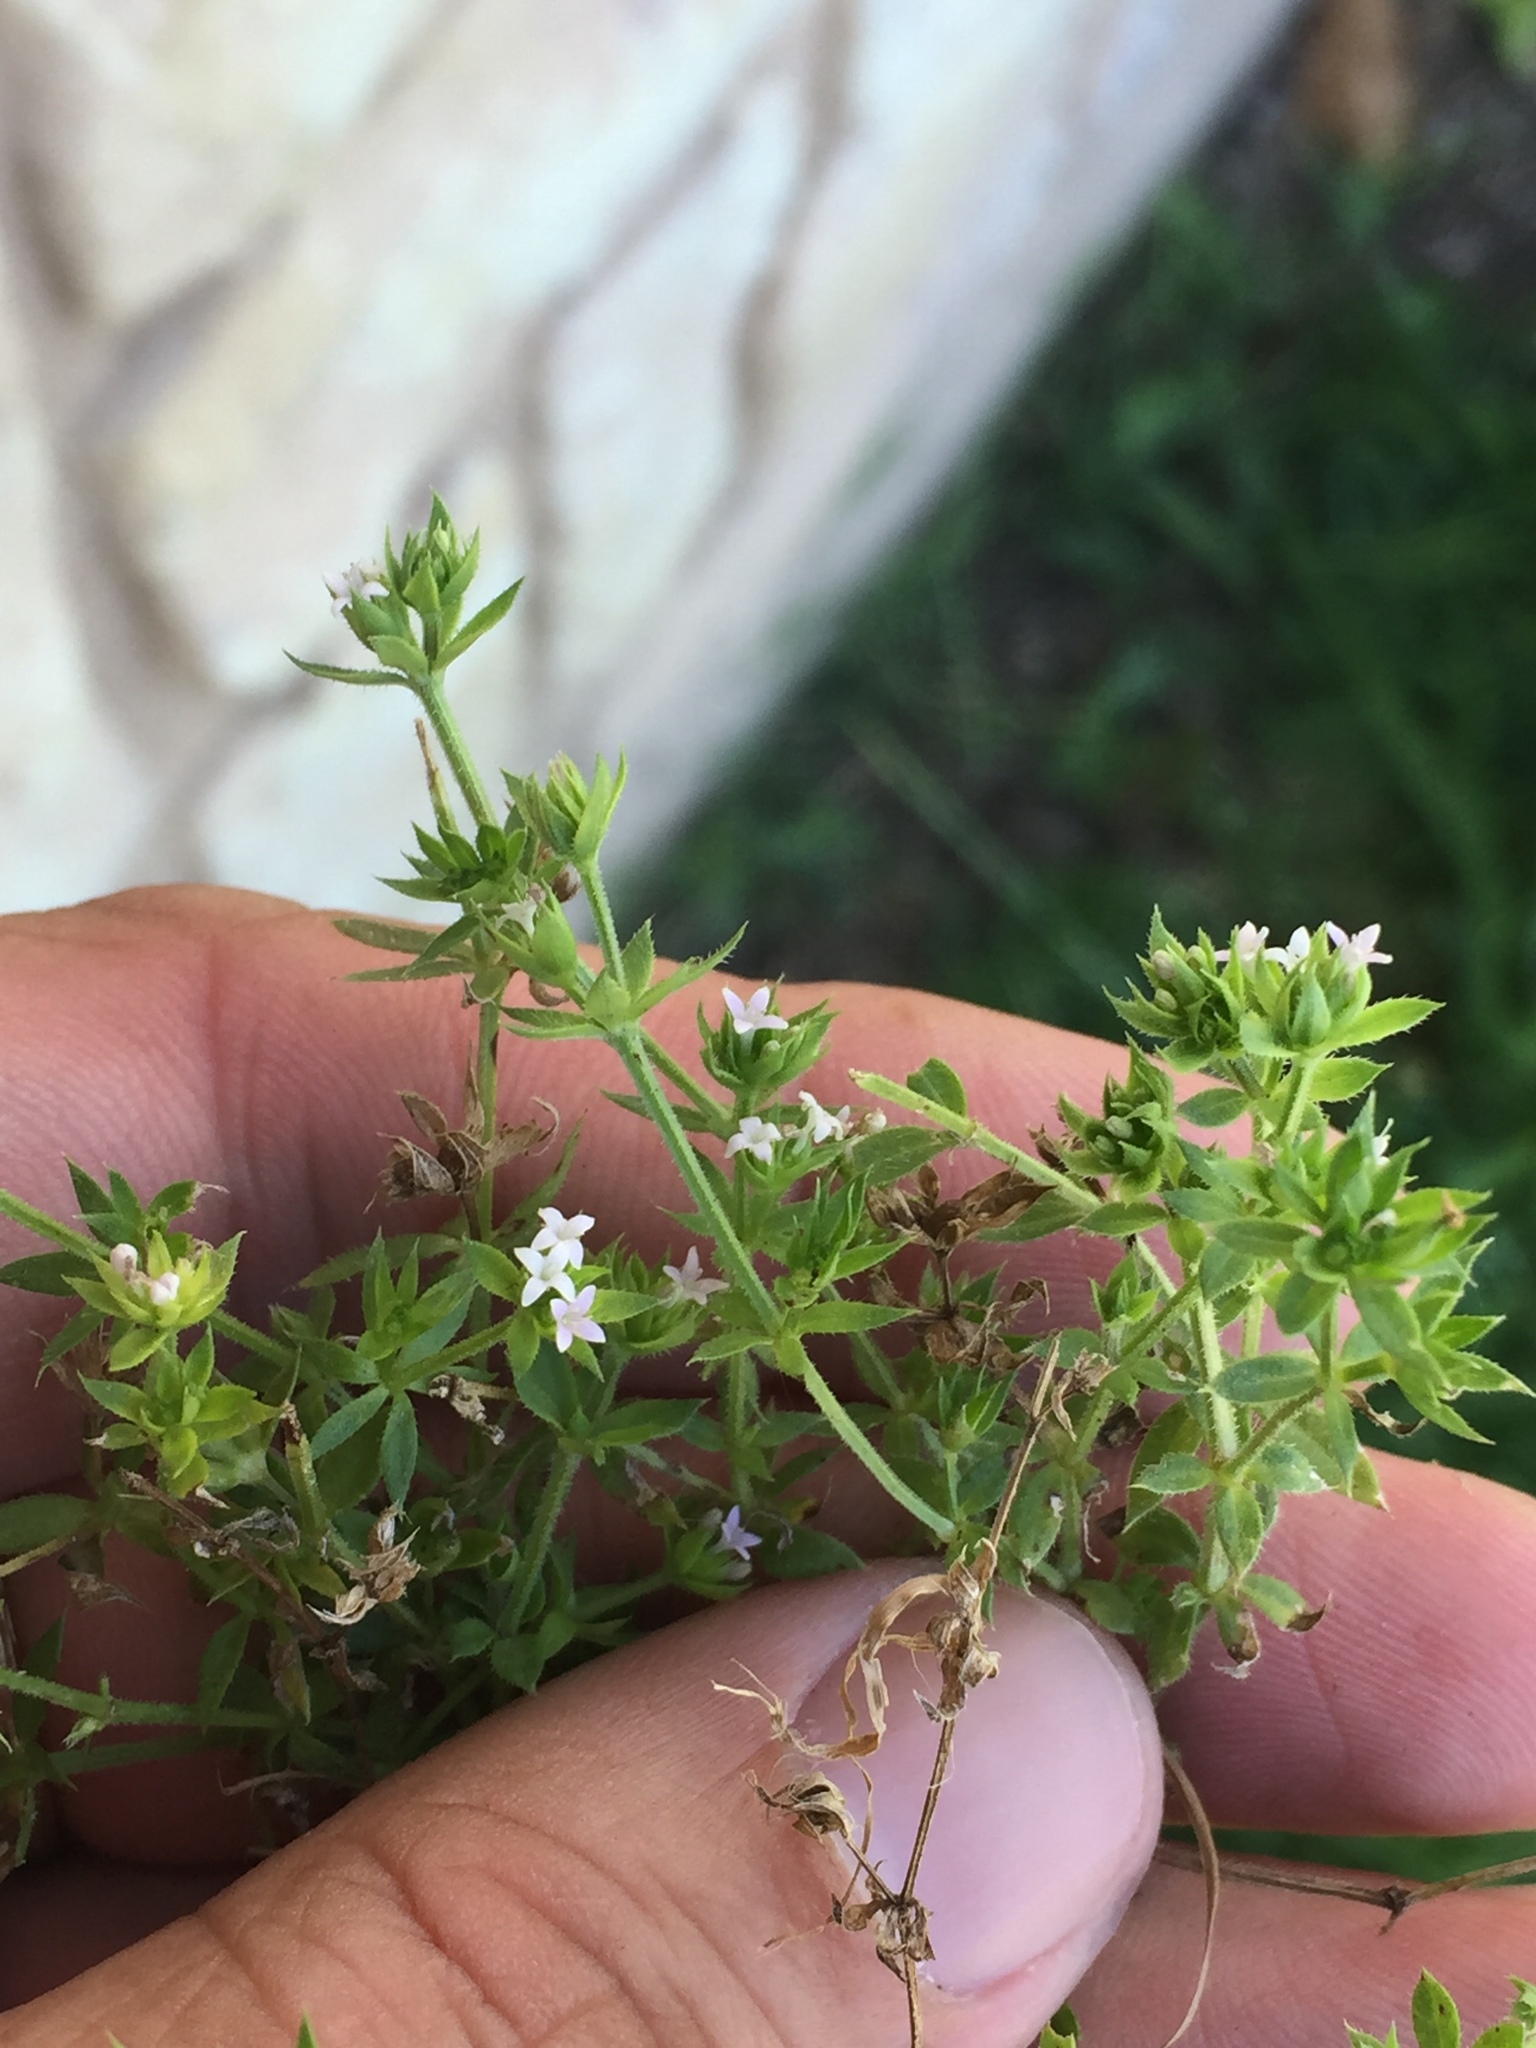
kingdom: Plantae
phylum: Tracheophyta
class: Magnoliopsida
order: Gentianales
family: Rubiaceae
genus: Sherardia
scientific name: Sherardia arvensis
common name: Field madder
